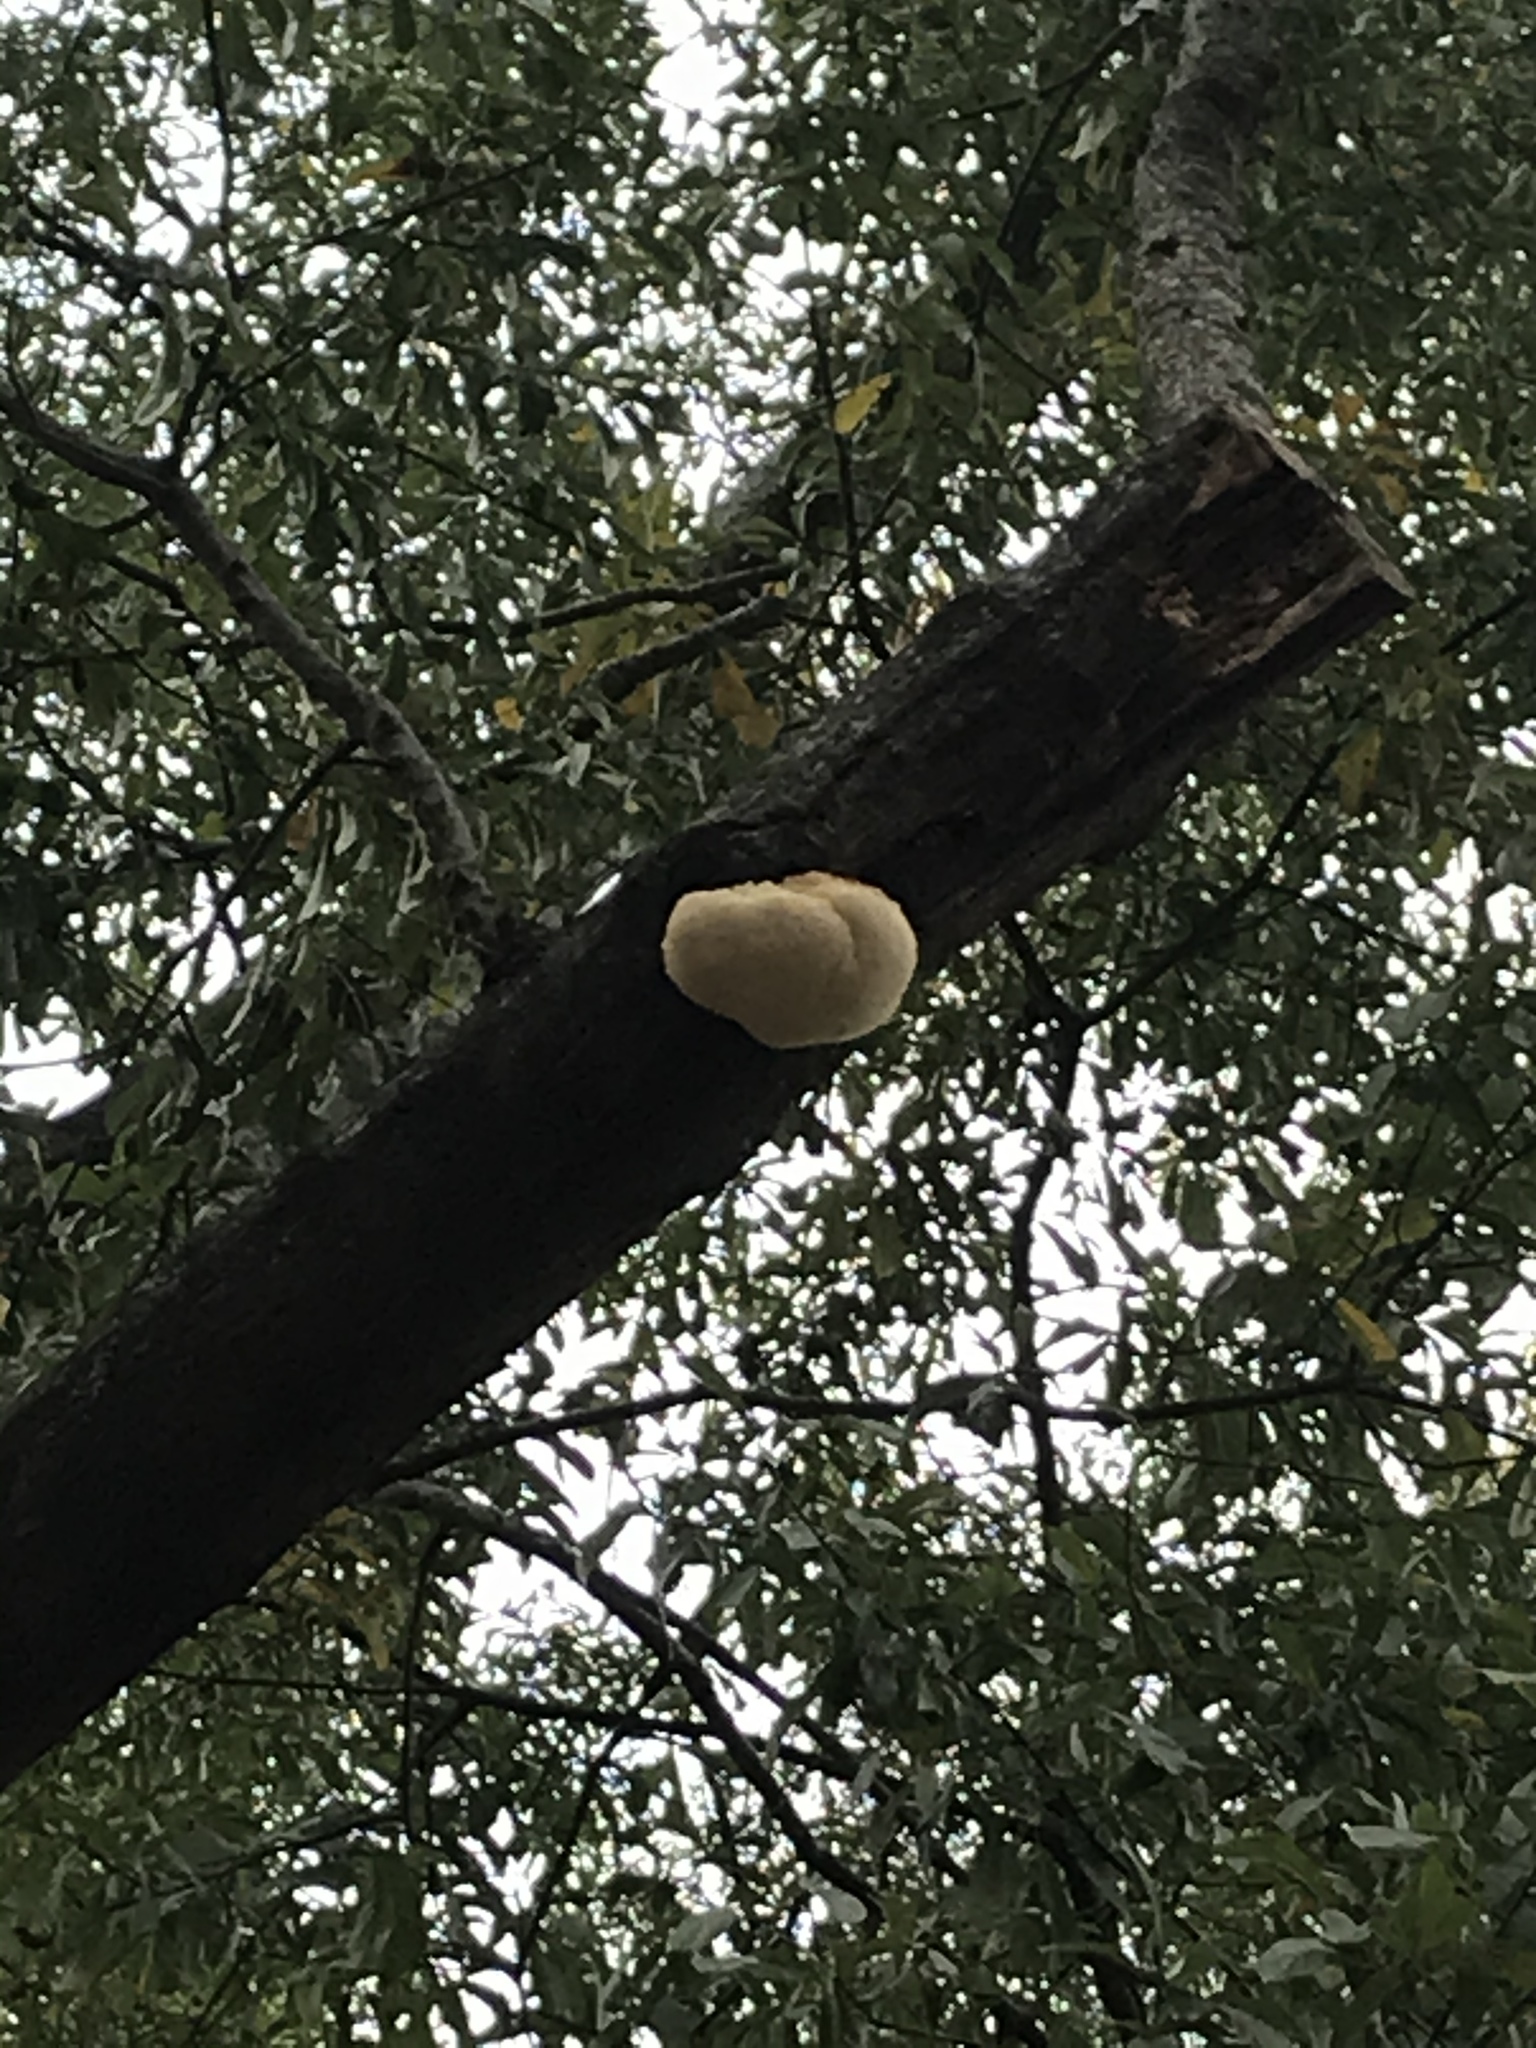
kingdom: Fungi
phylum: Basidiomycota
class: Agaricomycetes
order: Russulales
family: Hericiaceae
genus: Hericium
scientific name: Hericium erinaceus
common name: Bearded tooth
